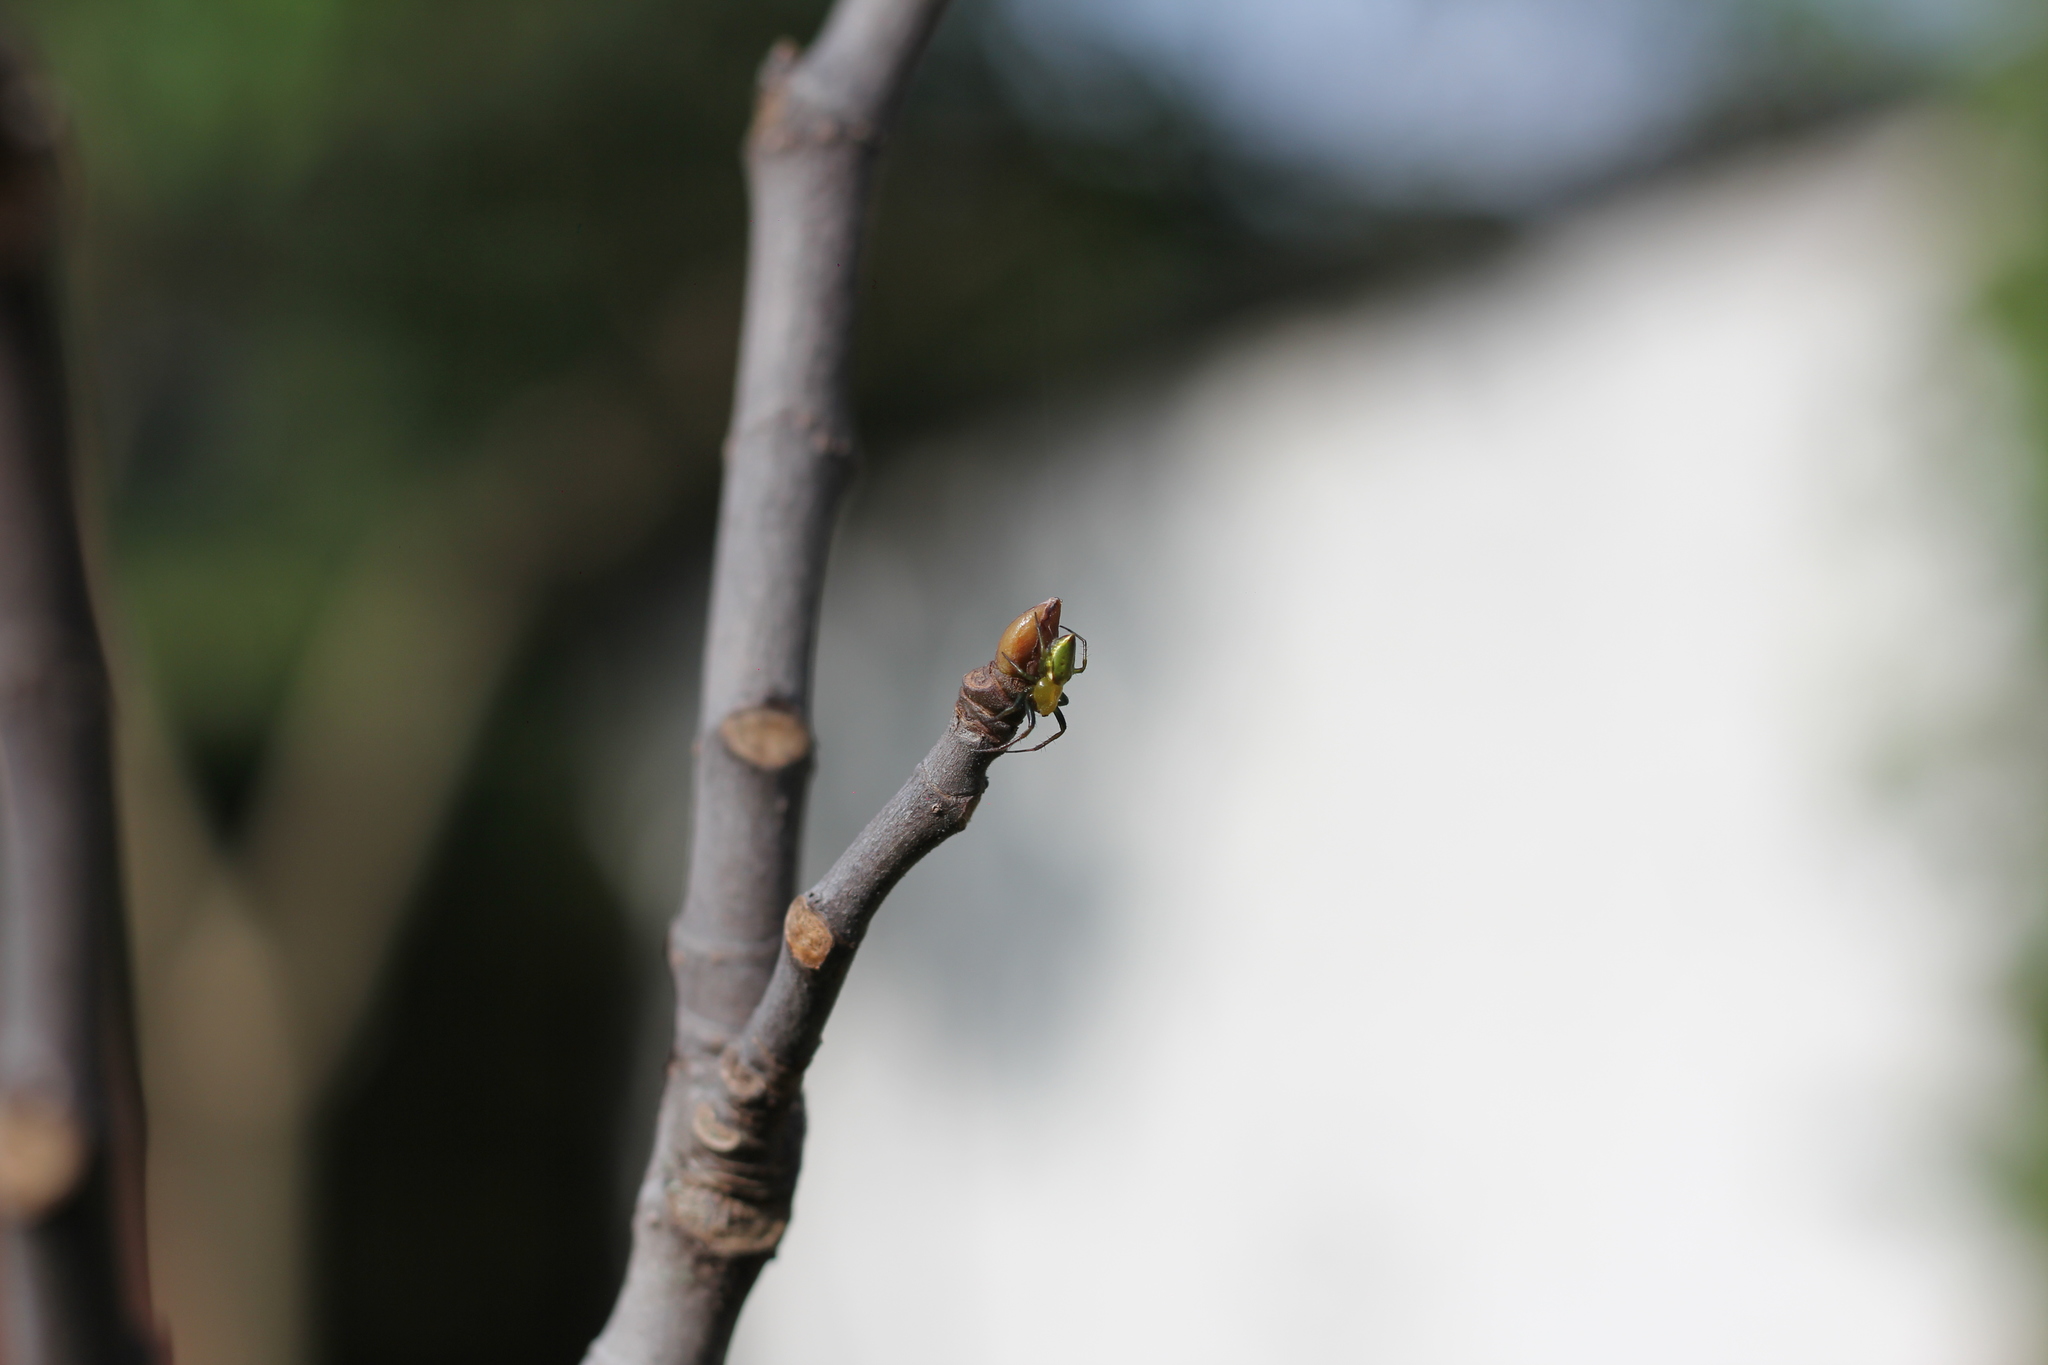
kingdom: Animalia
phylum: Arthropoda
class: Arachnida
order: Araneae
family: Araneidae
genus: Alpaida
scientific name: Alpaida costai
